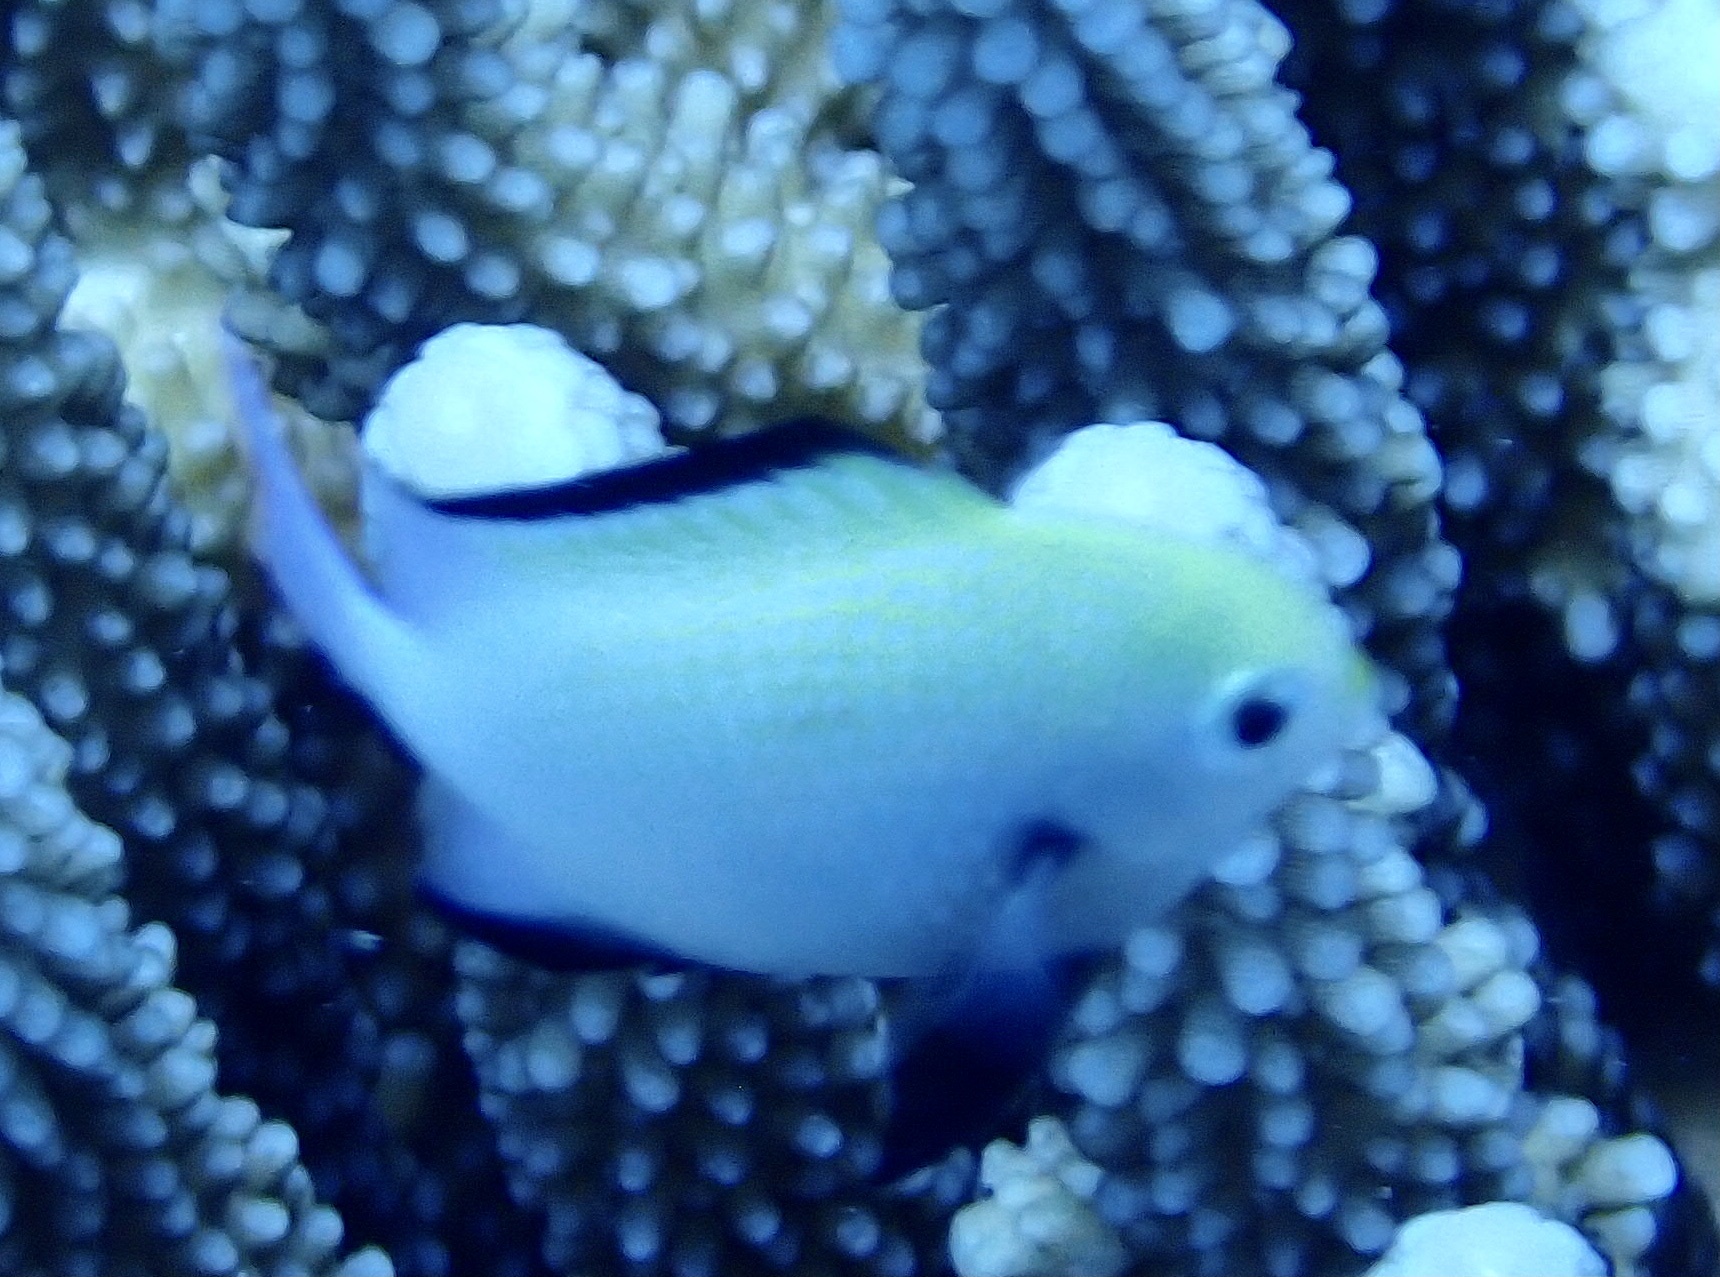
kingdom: Animalia
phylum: Chordata
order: Perciformes
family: Pomacentridae
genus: Dascyllus
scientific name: Dascyllus marginatus
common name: Red sea dascyllus
